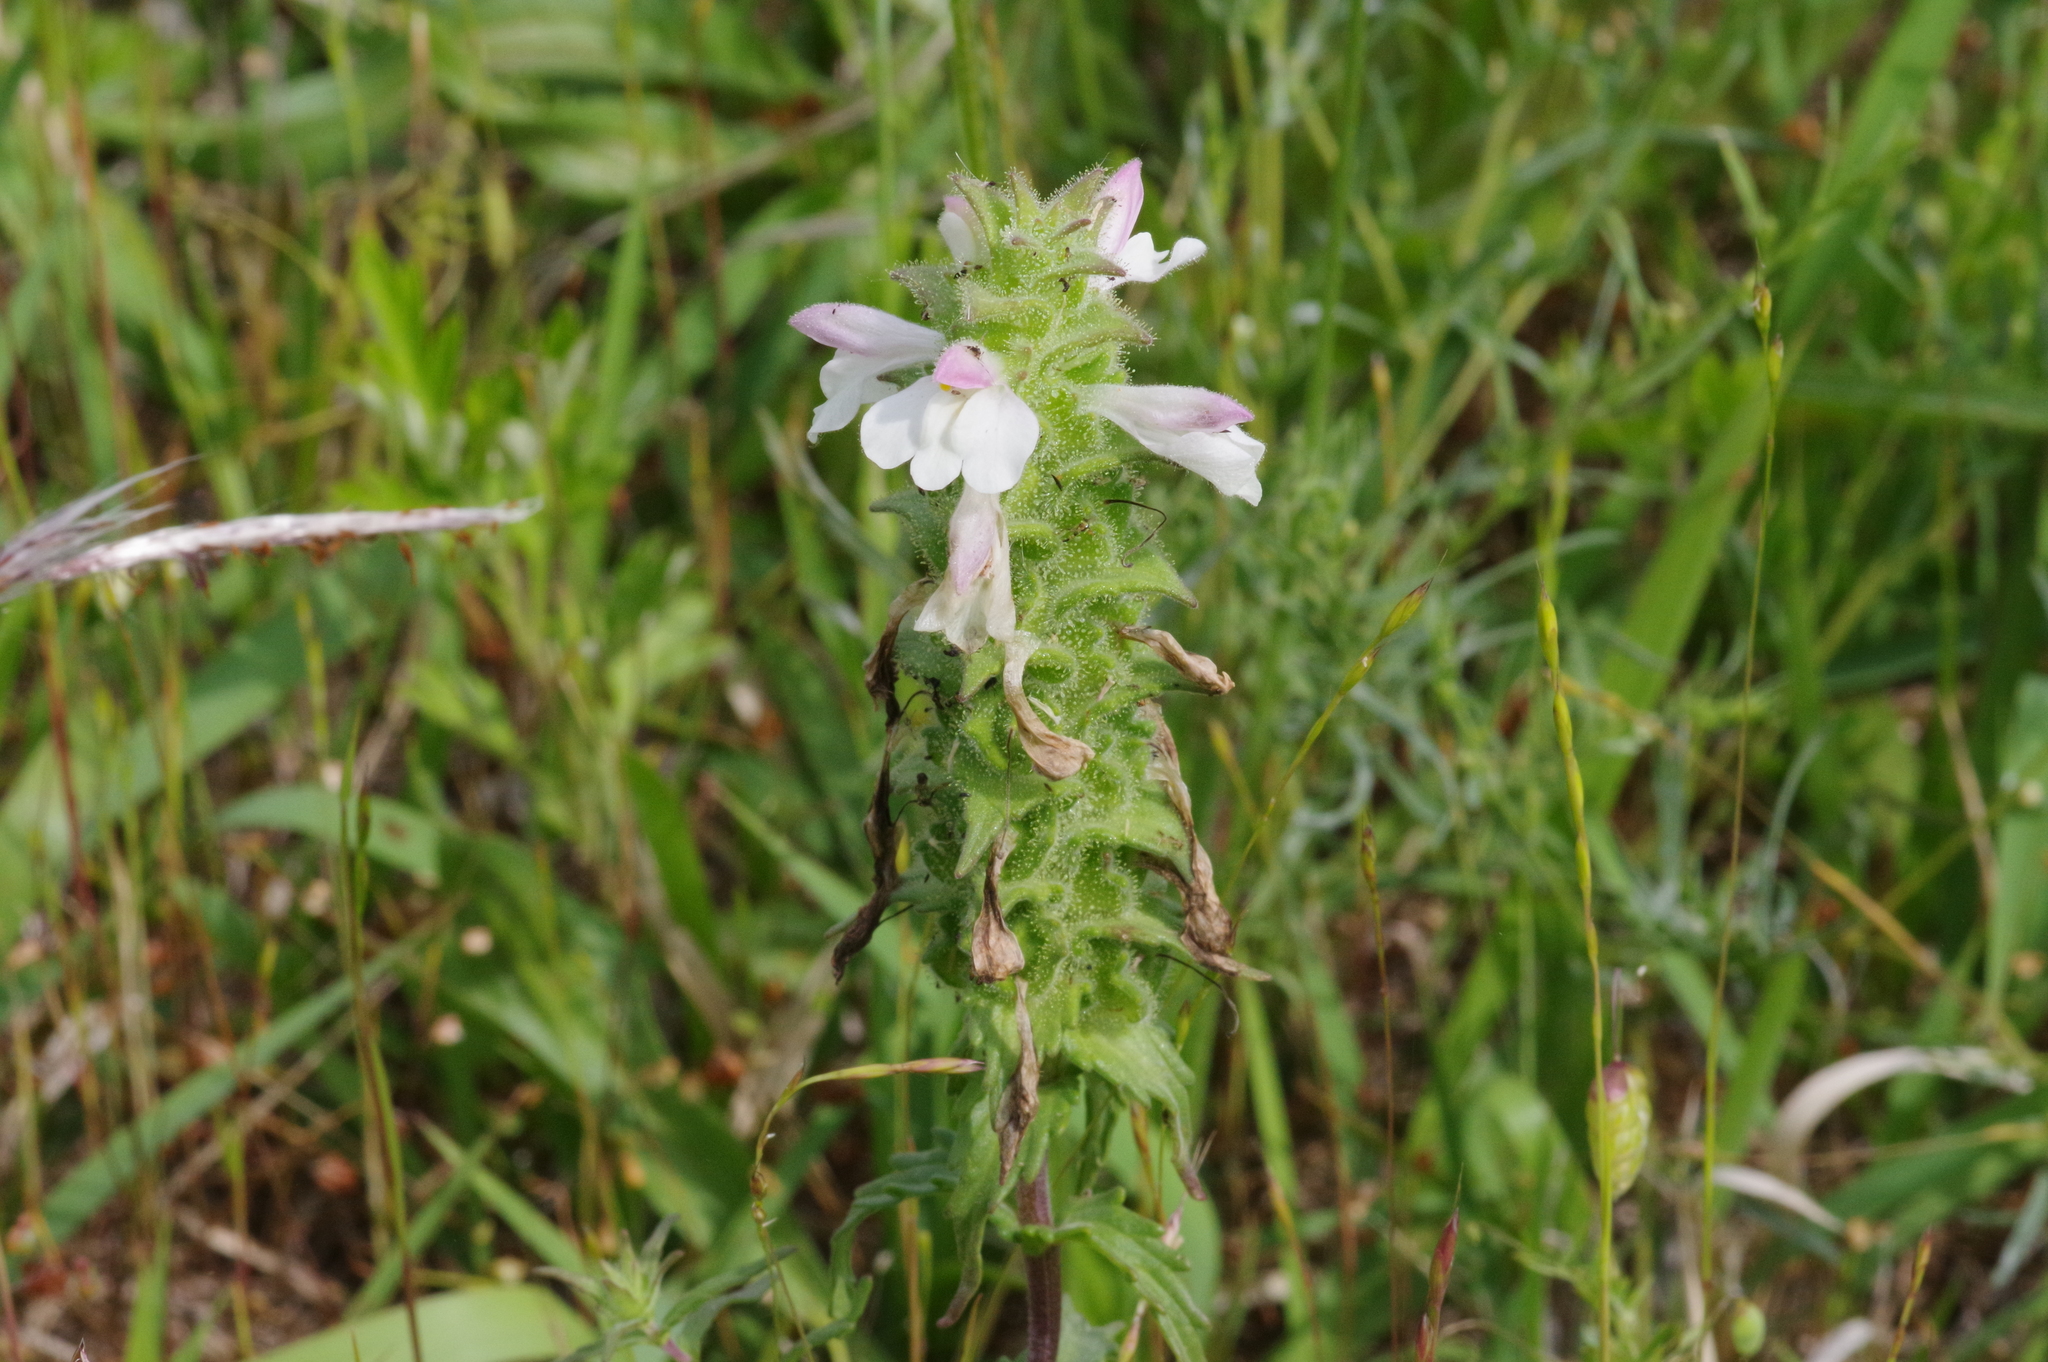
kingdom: Plantae
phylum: Tracheophyta
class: Magnoliopsida
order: Lamiales
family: Orobanchaceae
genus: Bellardia
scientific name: Bellardia trixago
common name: Mediterranean lineseed
